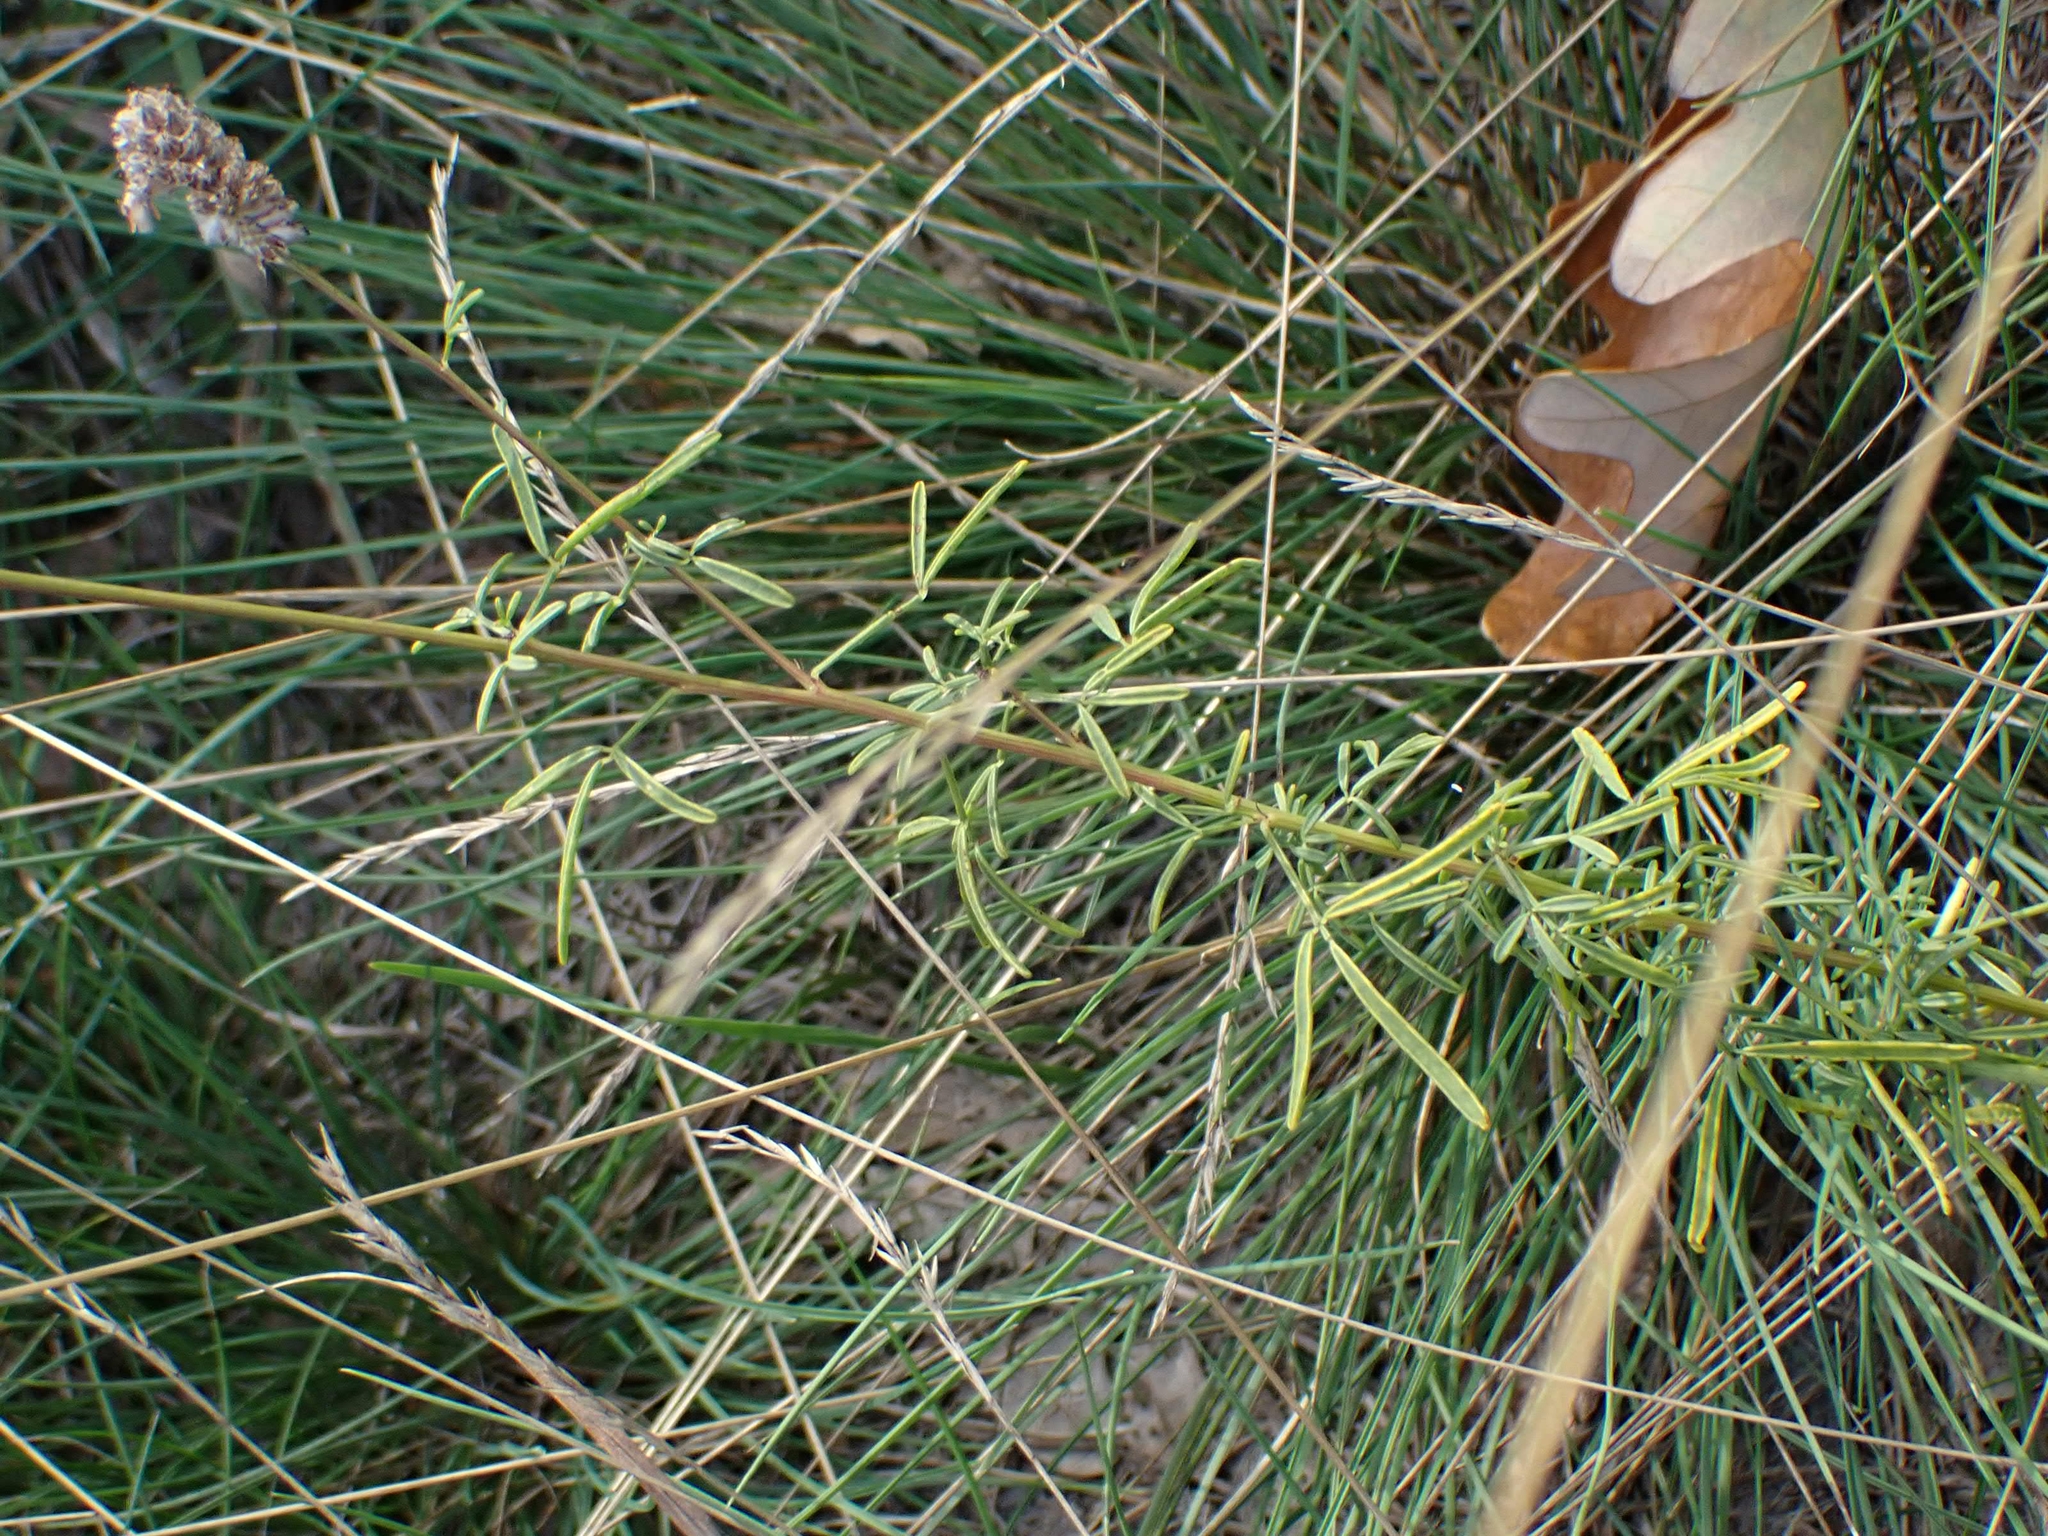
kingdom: Plantae
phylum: Tracheophyta
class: Magnoliopsida
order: Fabales
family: Fabaceae
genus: Dalea
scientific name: Dalea purpurea
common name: Purple prairie-clover
